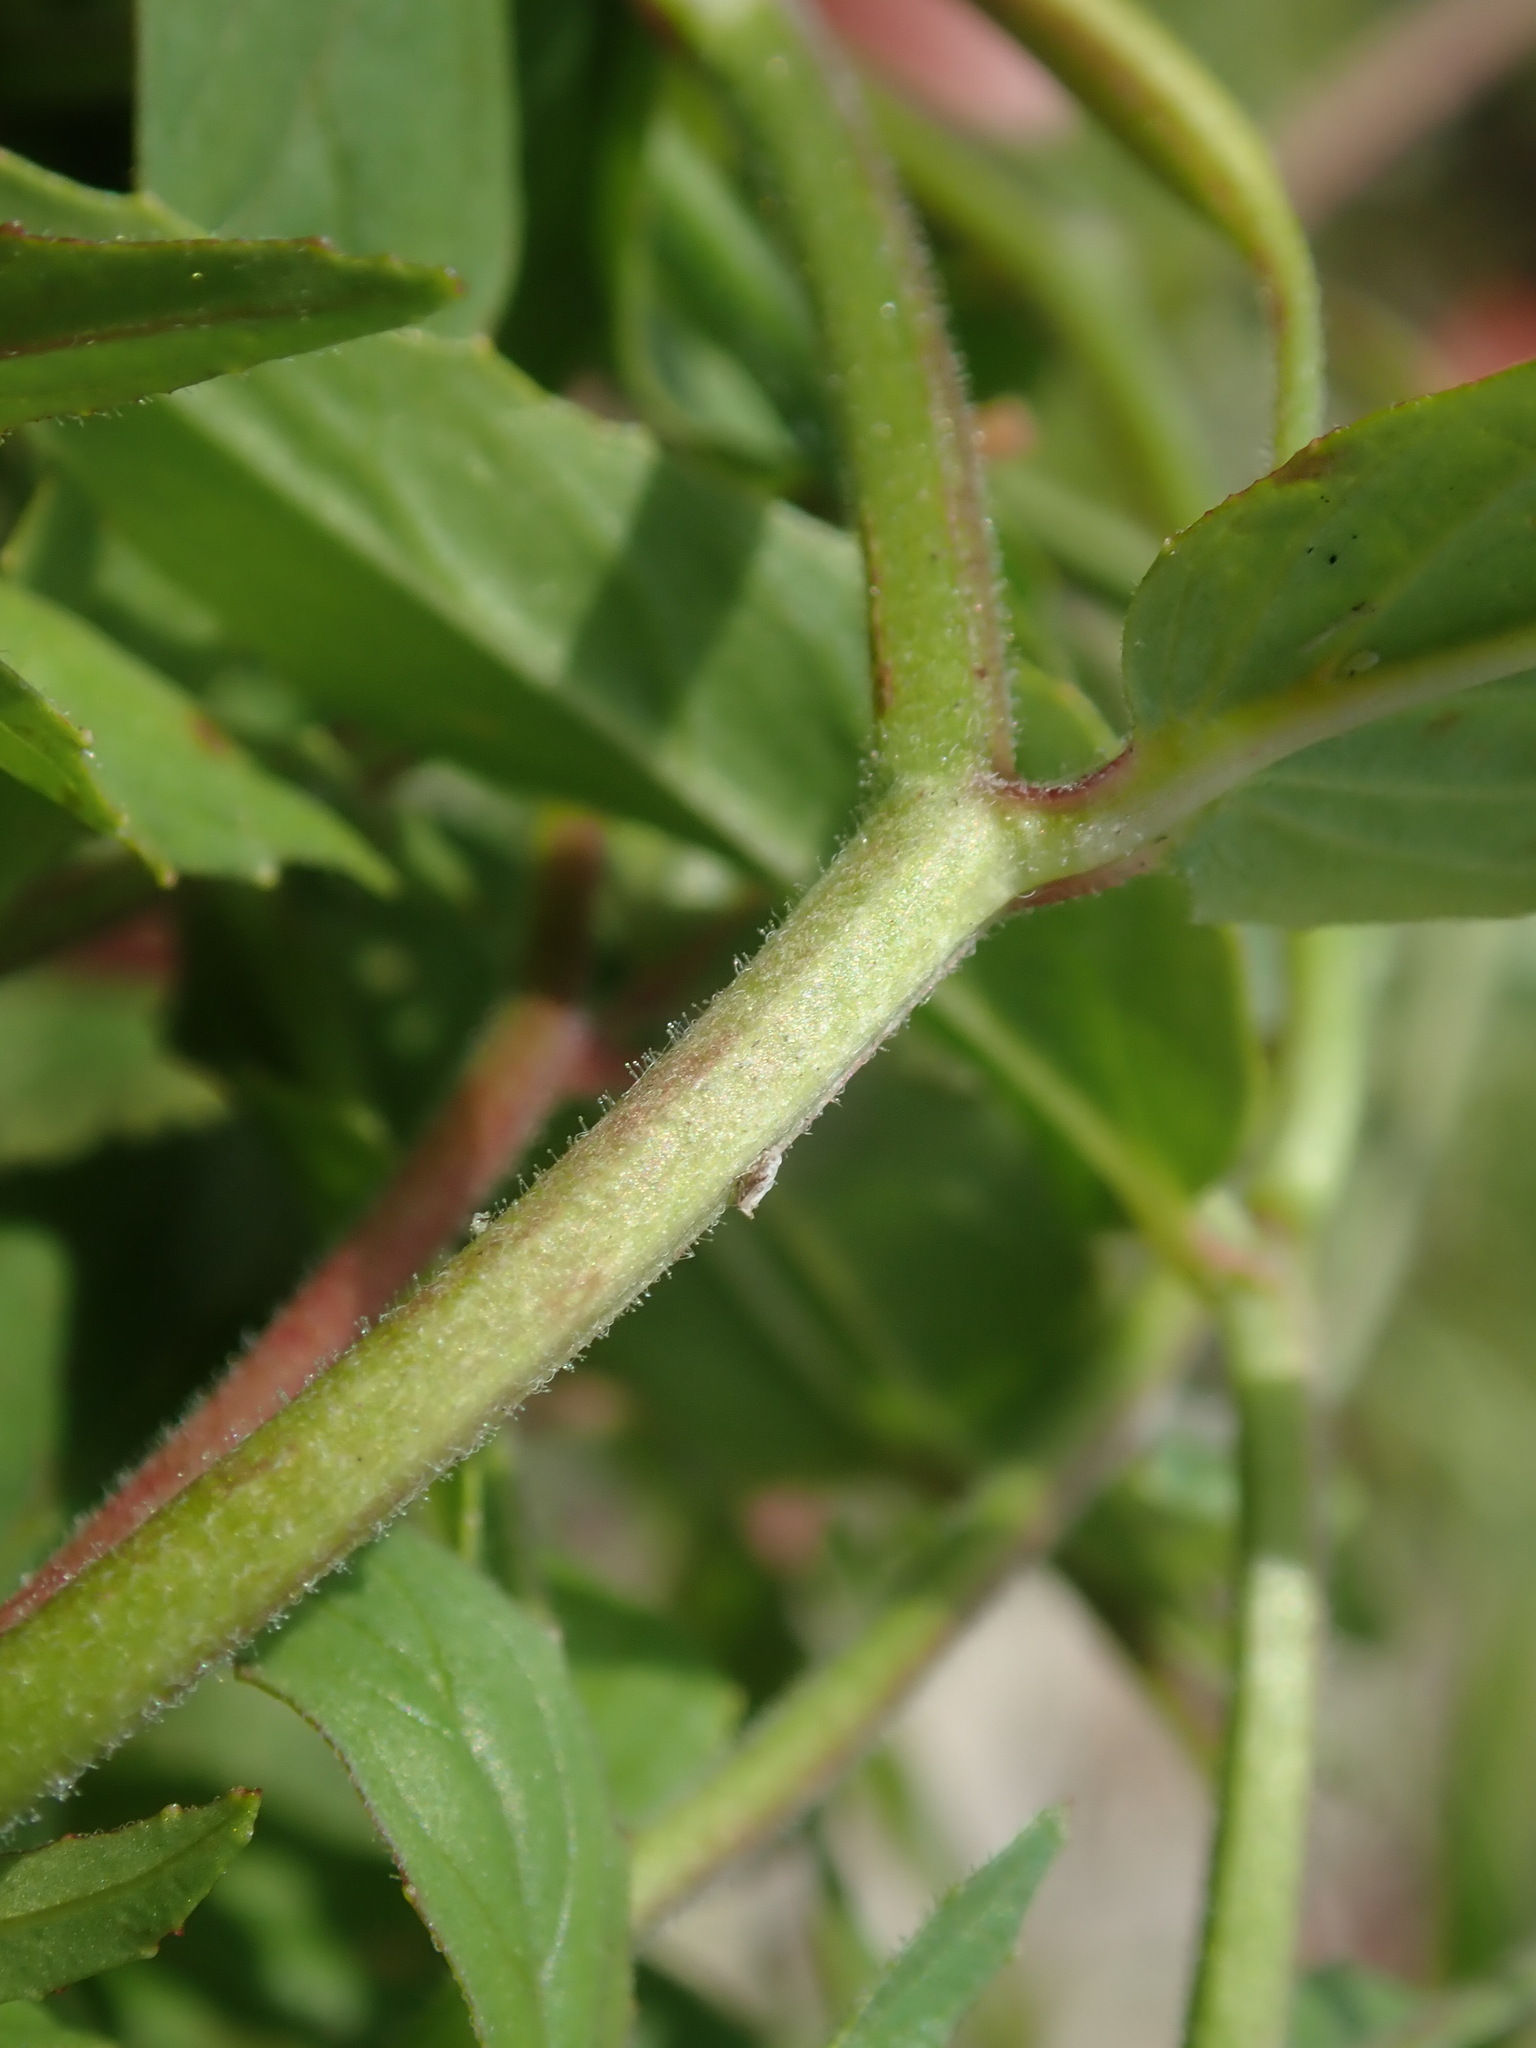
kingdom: Plantae
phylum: Tracheophyta
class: Magnoliopsida
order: Myrtales
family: Onagraceae
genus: Epilobium
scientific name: Epilobium ciliatum
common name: American willowherb
